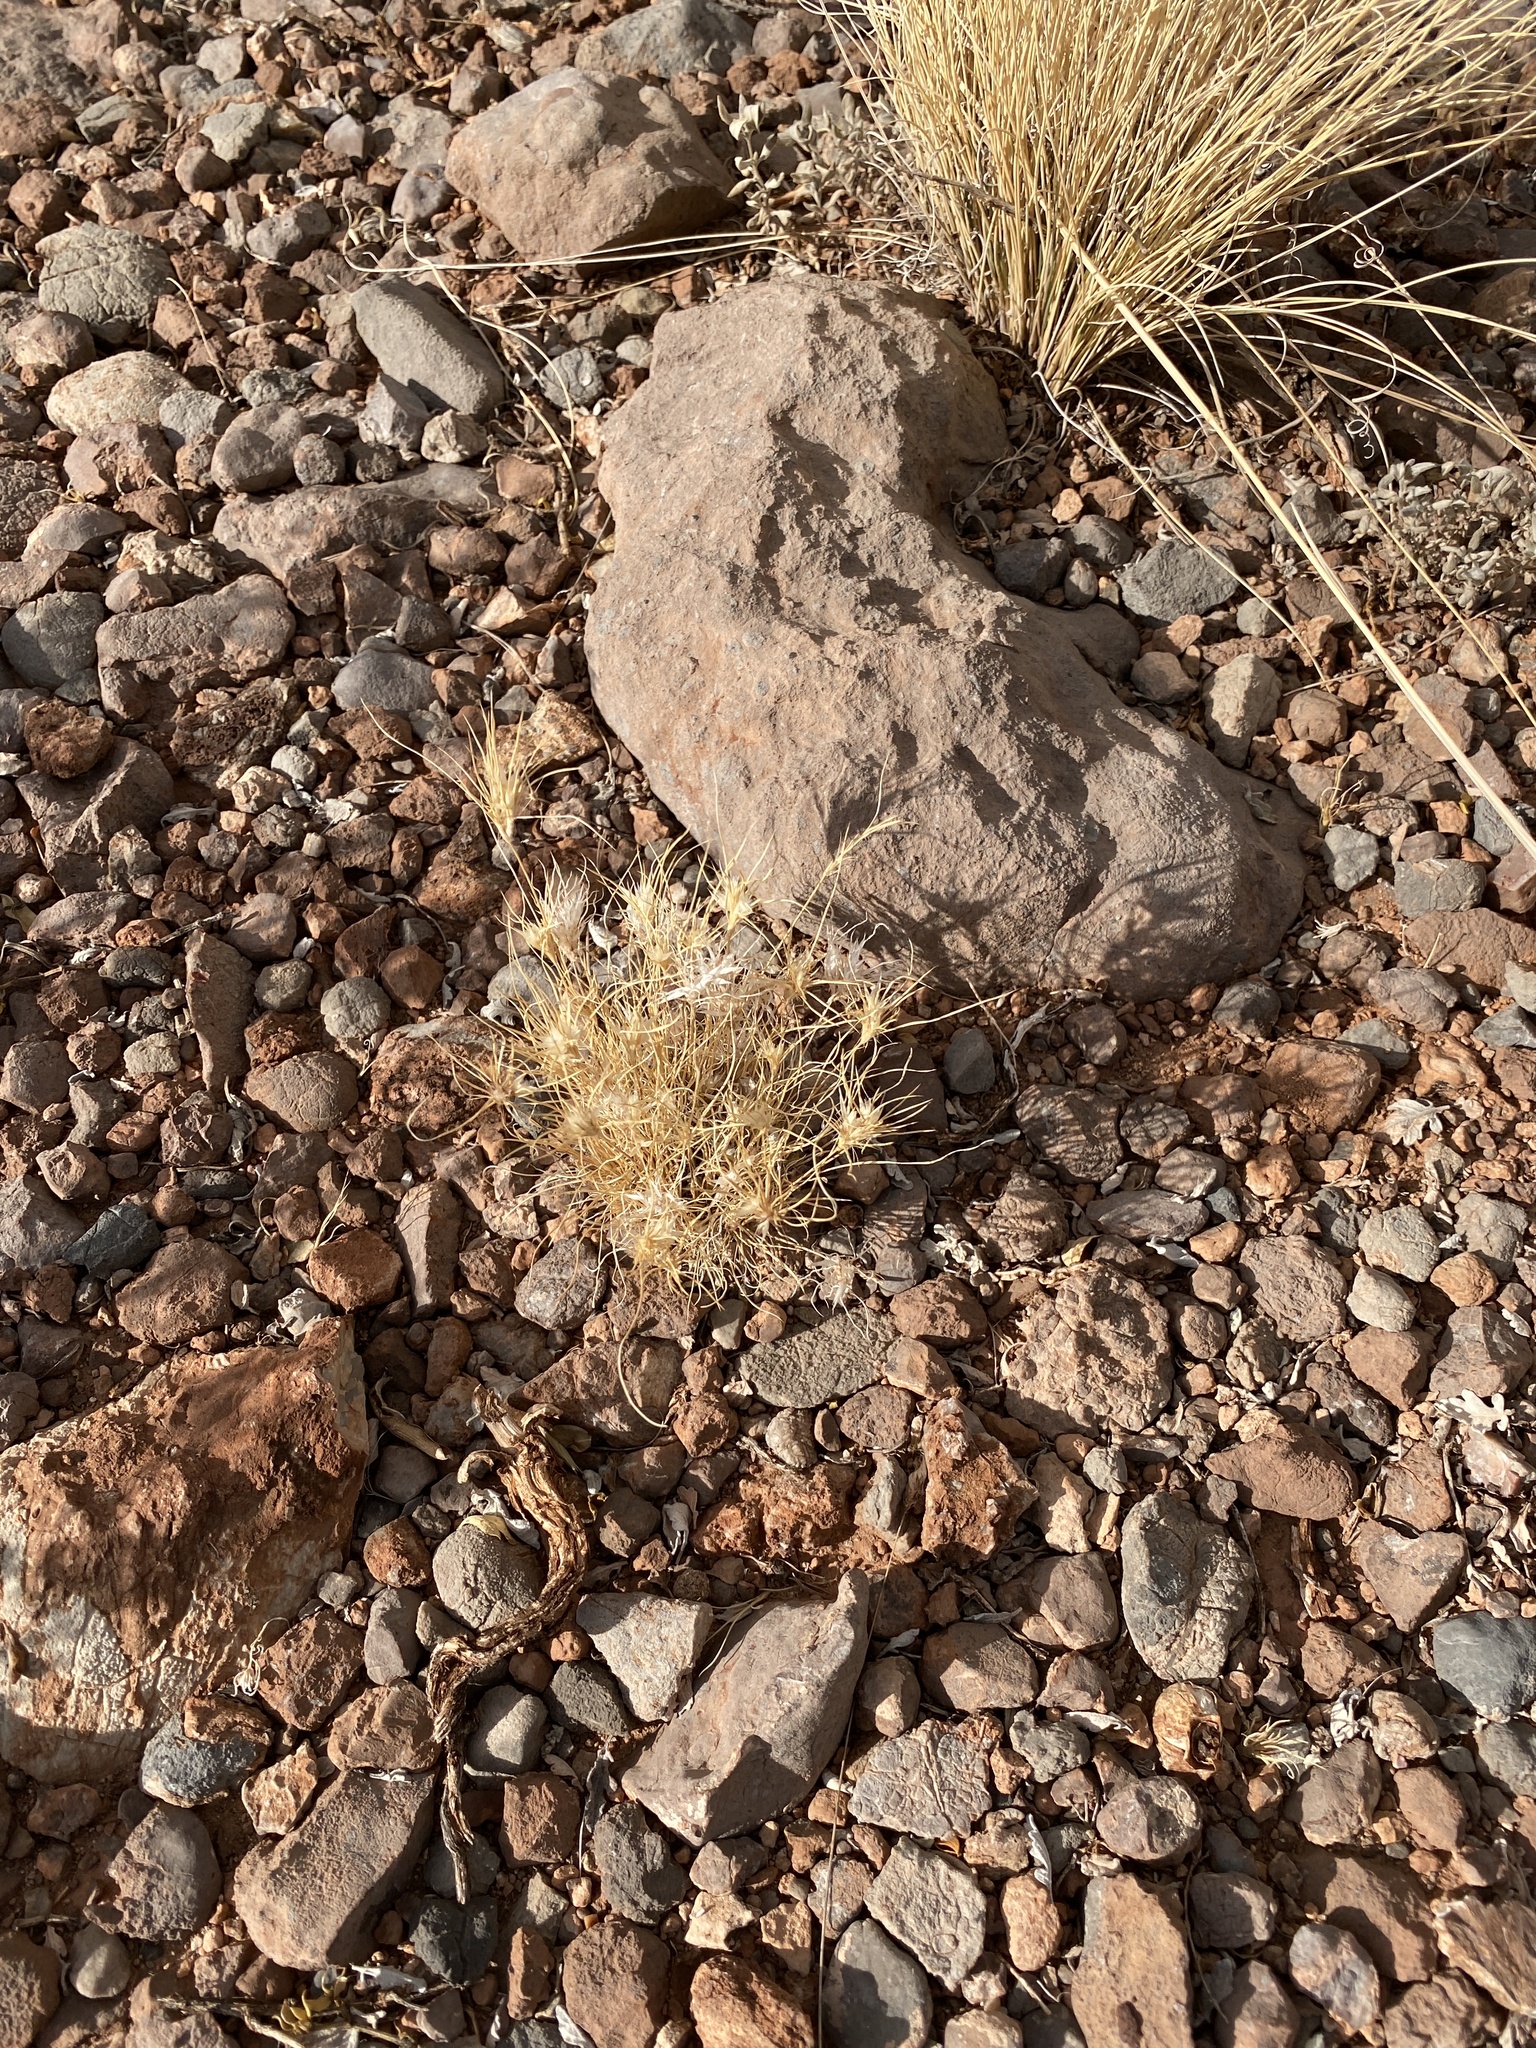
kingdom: Plantae
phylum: Tracheophyta
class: Liliopsida
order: Poales
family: Poaceae
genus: Dasyochloa
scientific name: Dasyochloa pulchella
